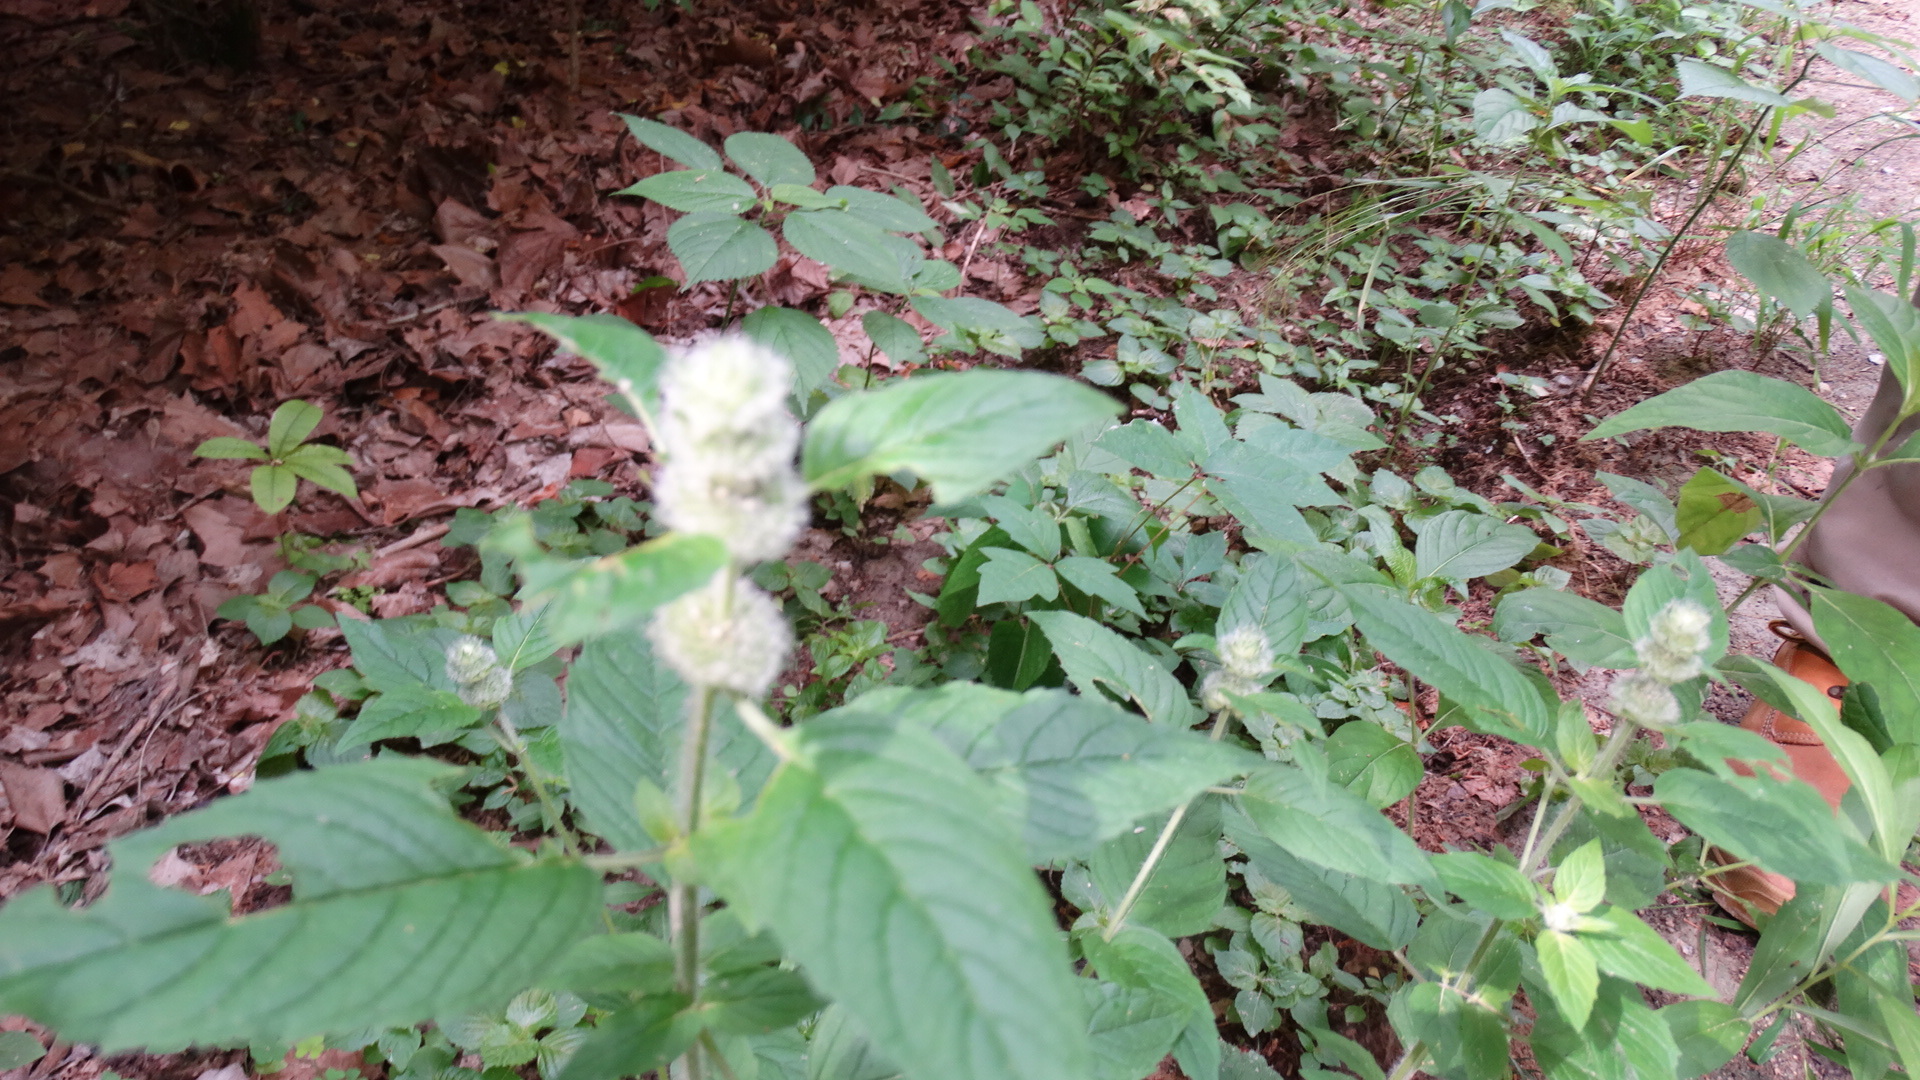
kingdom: Plantae
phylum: Tracheophyta
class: Magnoliopsida
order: Lamiales
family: Lamiaceae
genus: Blephilia
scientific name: Blephilia hirsuta
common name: Hairy blephilia
